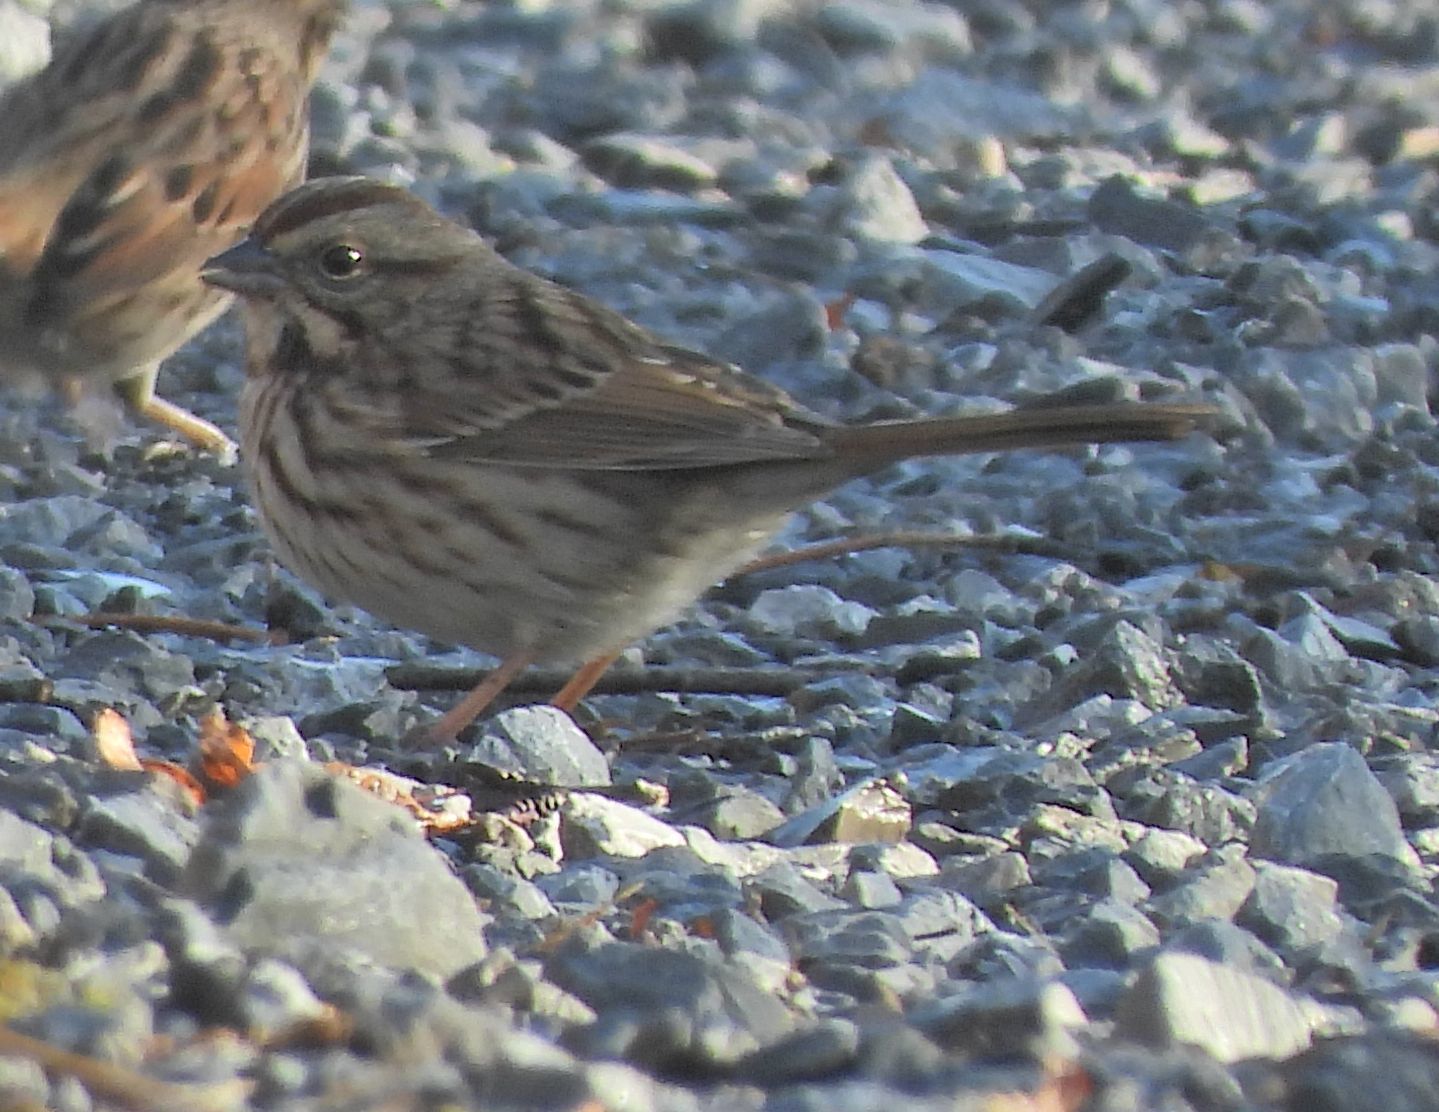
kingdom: Animalia
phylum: Chordata
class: Aves
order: Passeriformes
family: Passerellidae
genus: Melospiza
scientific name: Melospiza melodia
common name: Song sparrow
